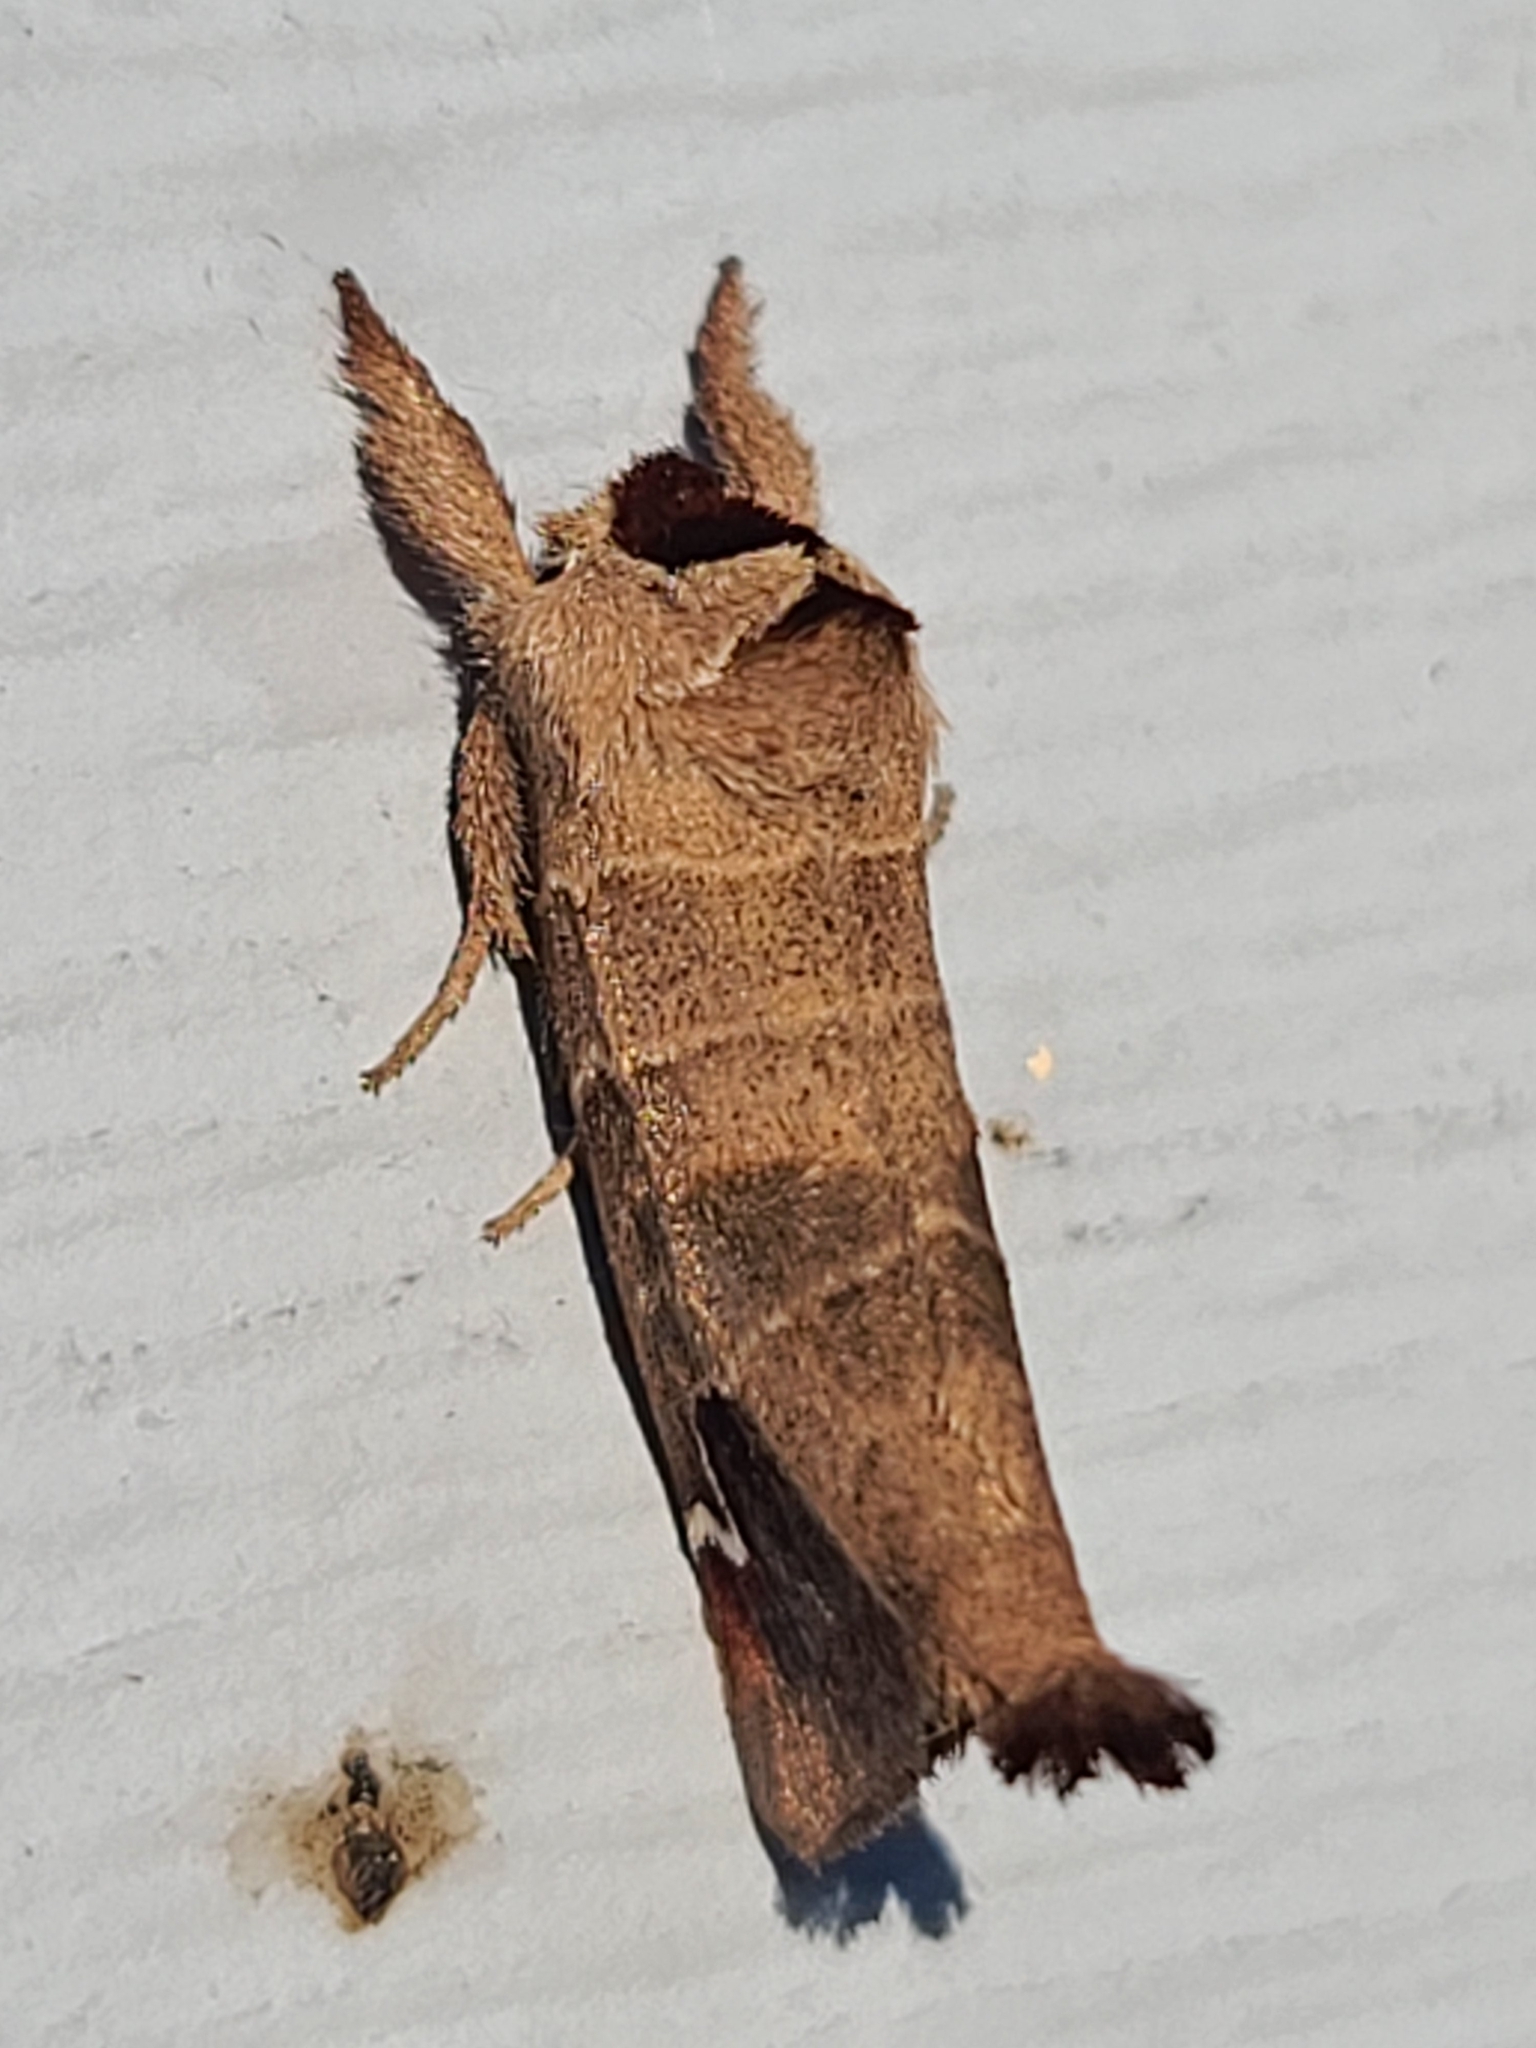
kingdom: Animalia
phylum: Arthropoda
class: Insecta
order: Lepidoptera
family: Notodontidae
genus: Clostera
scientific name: Clostera albosigma
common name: Sigmoid prominent
